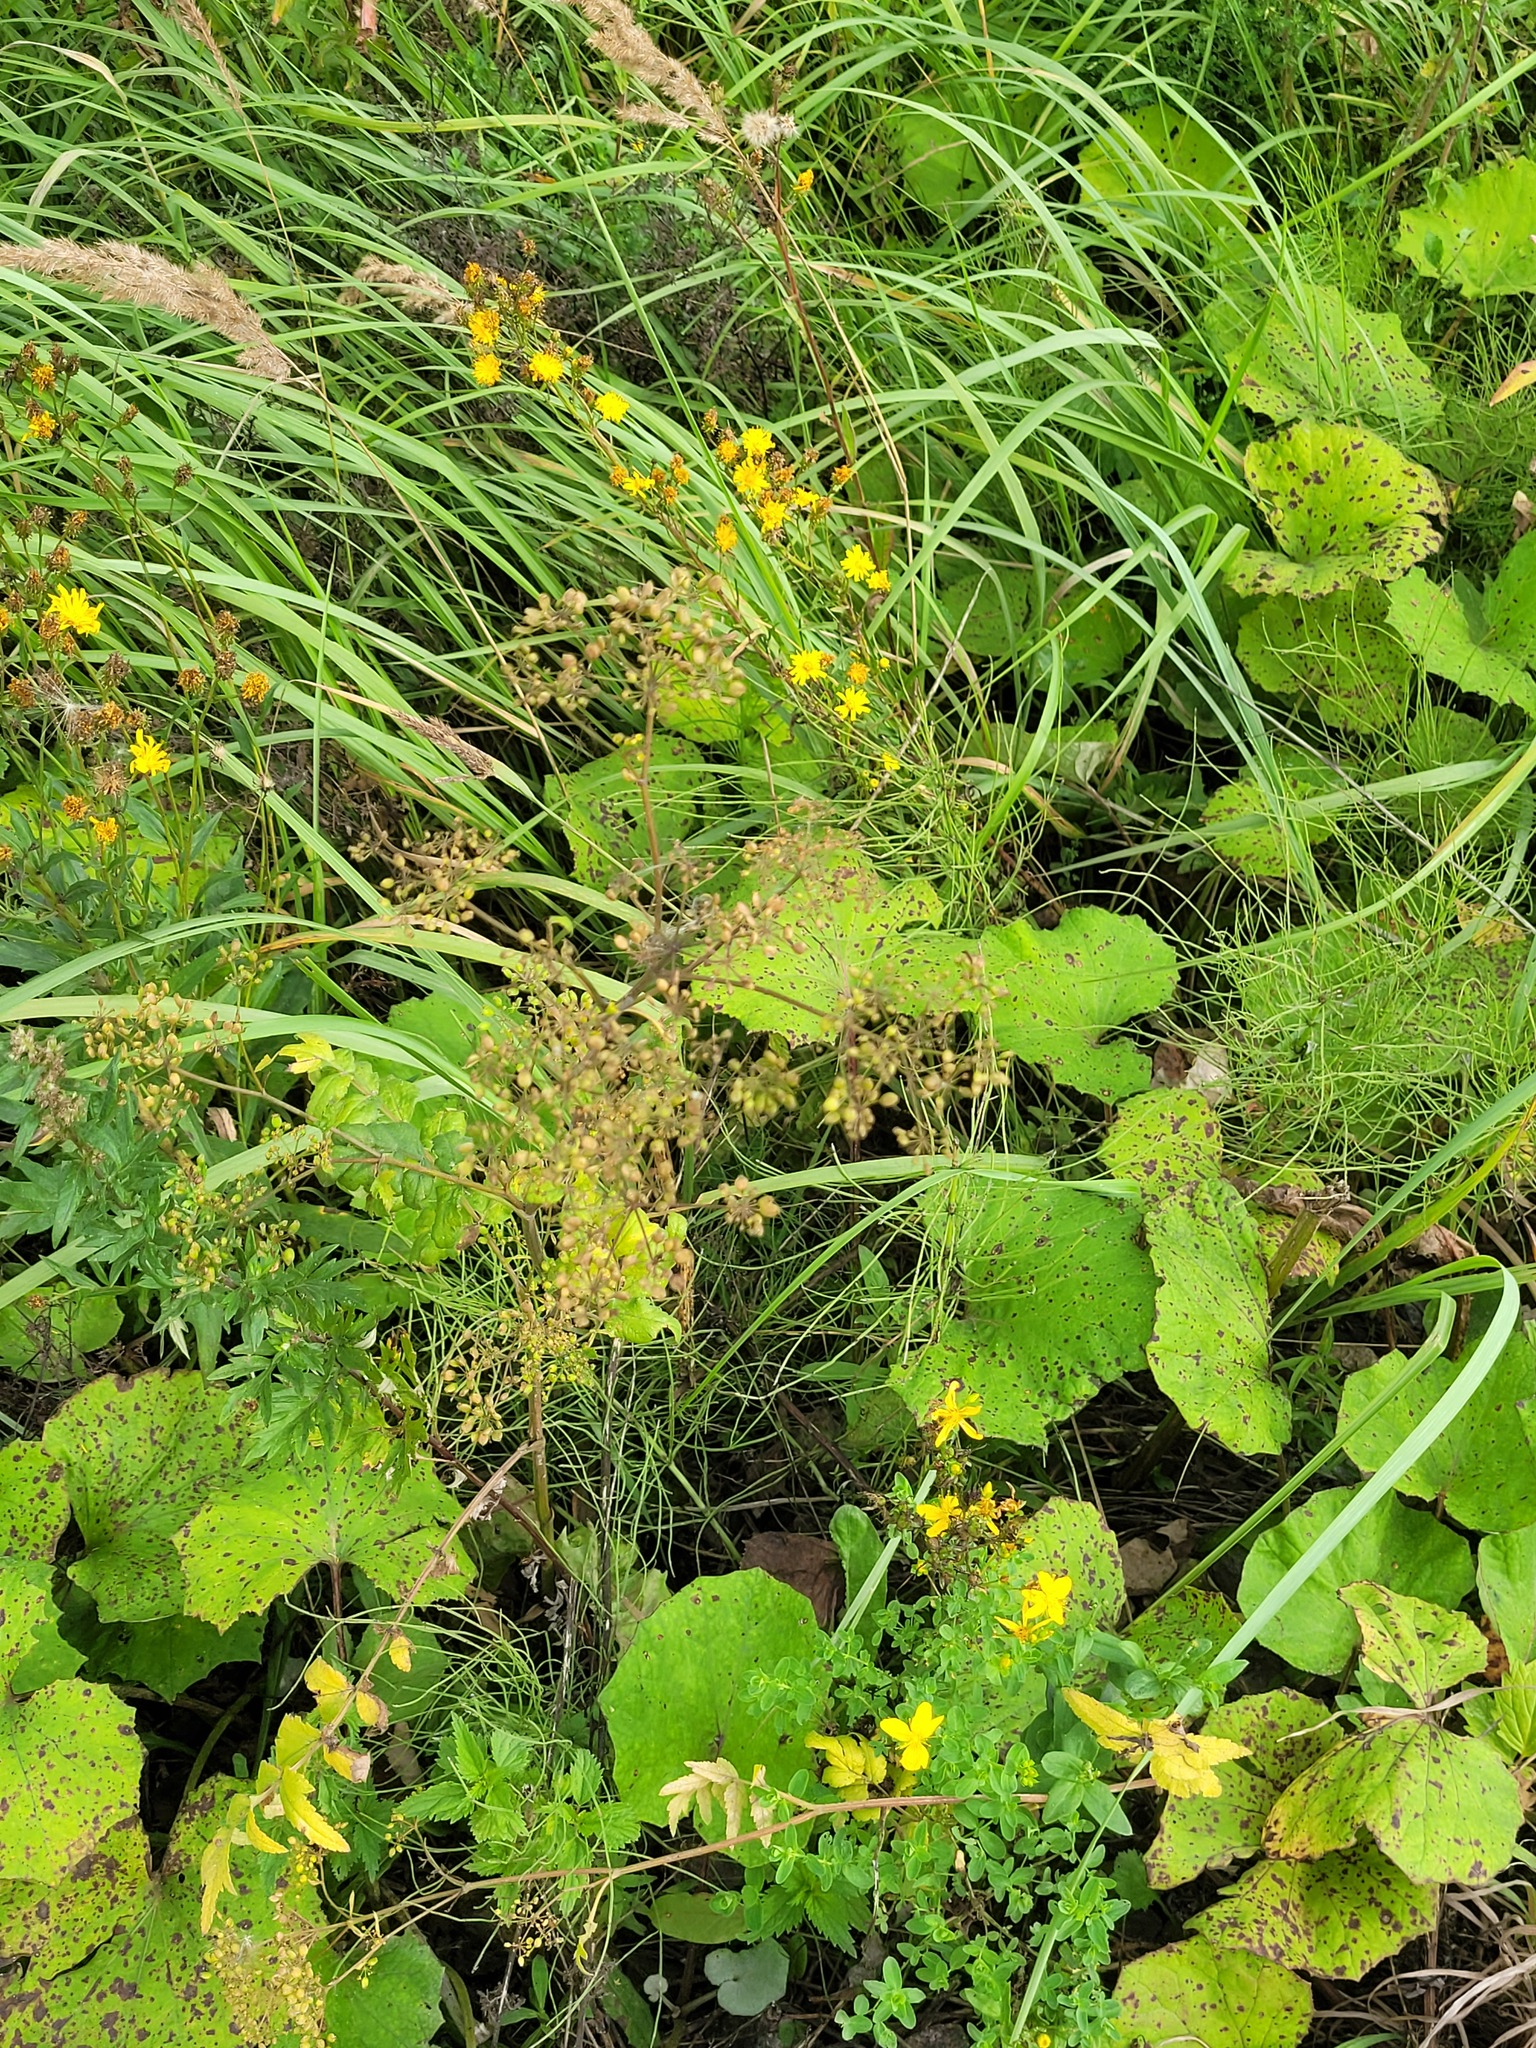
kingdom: Plantae
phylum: Tracheophyta
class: Magnoliopsida
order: Apiales
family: Apiaceae
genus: Pastinaca
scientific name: Pastinaca sativa
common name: Wild parsnip
